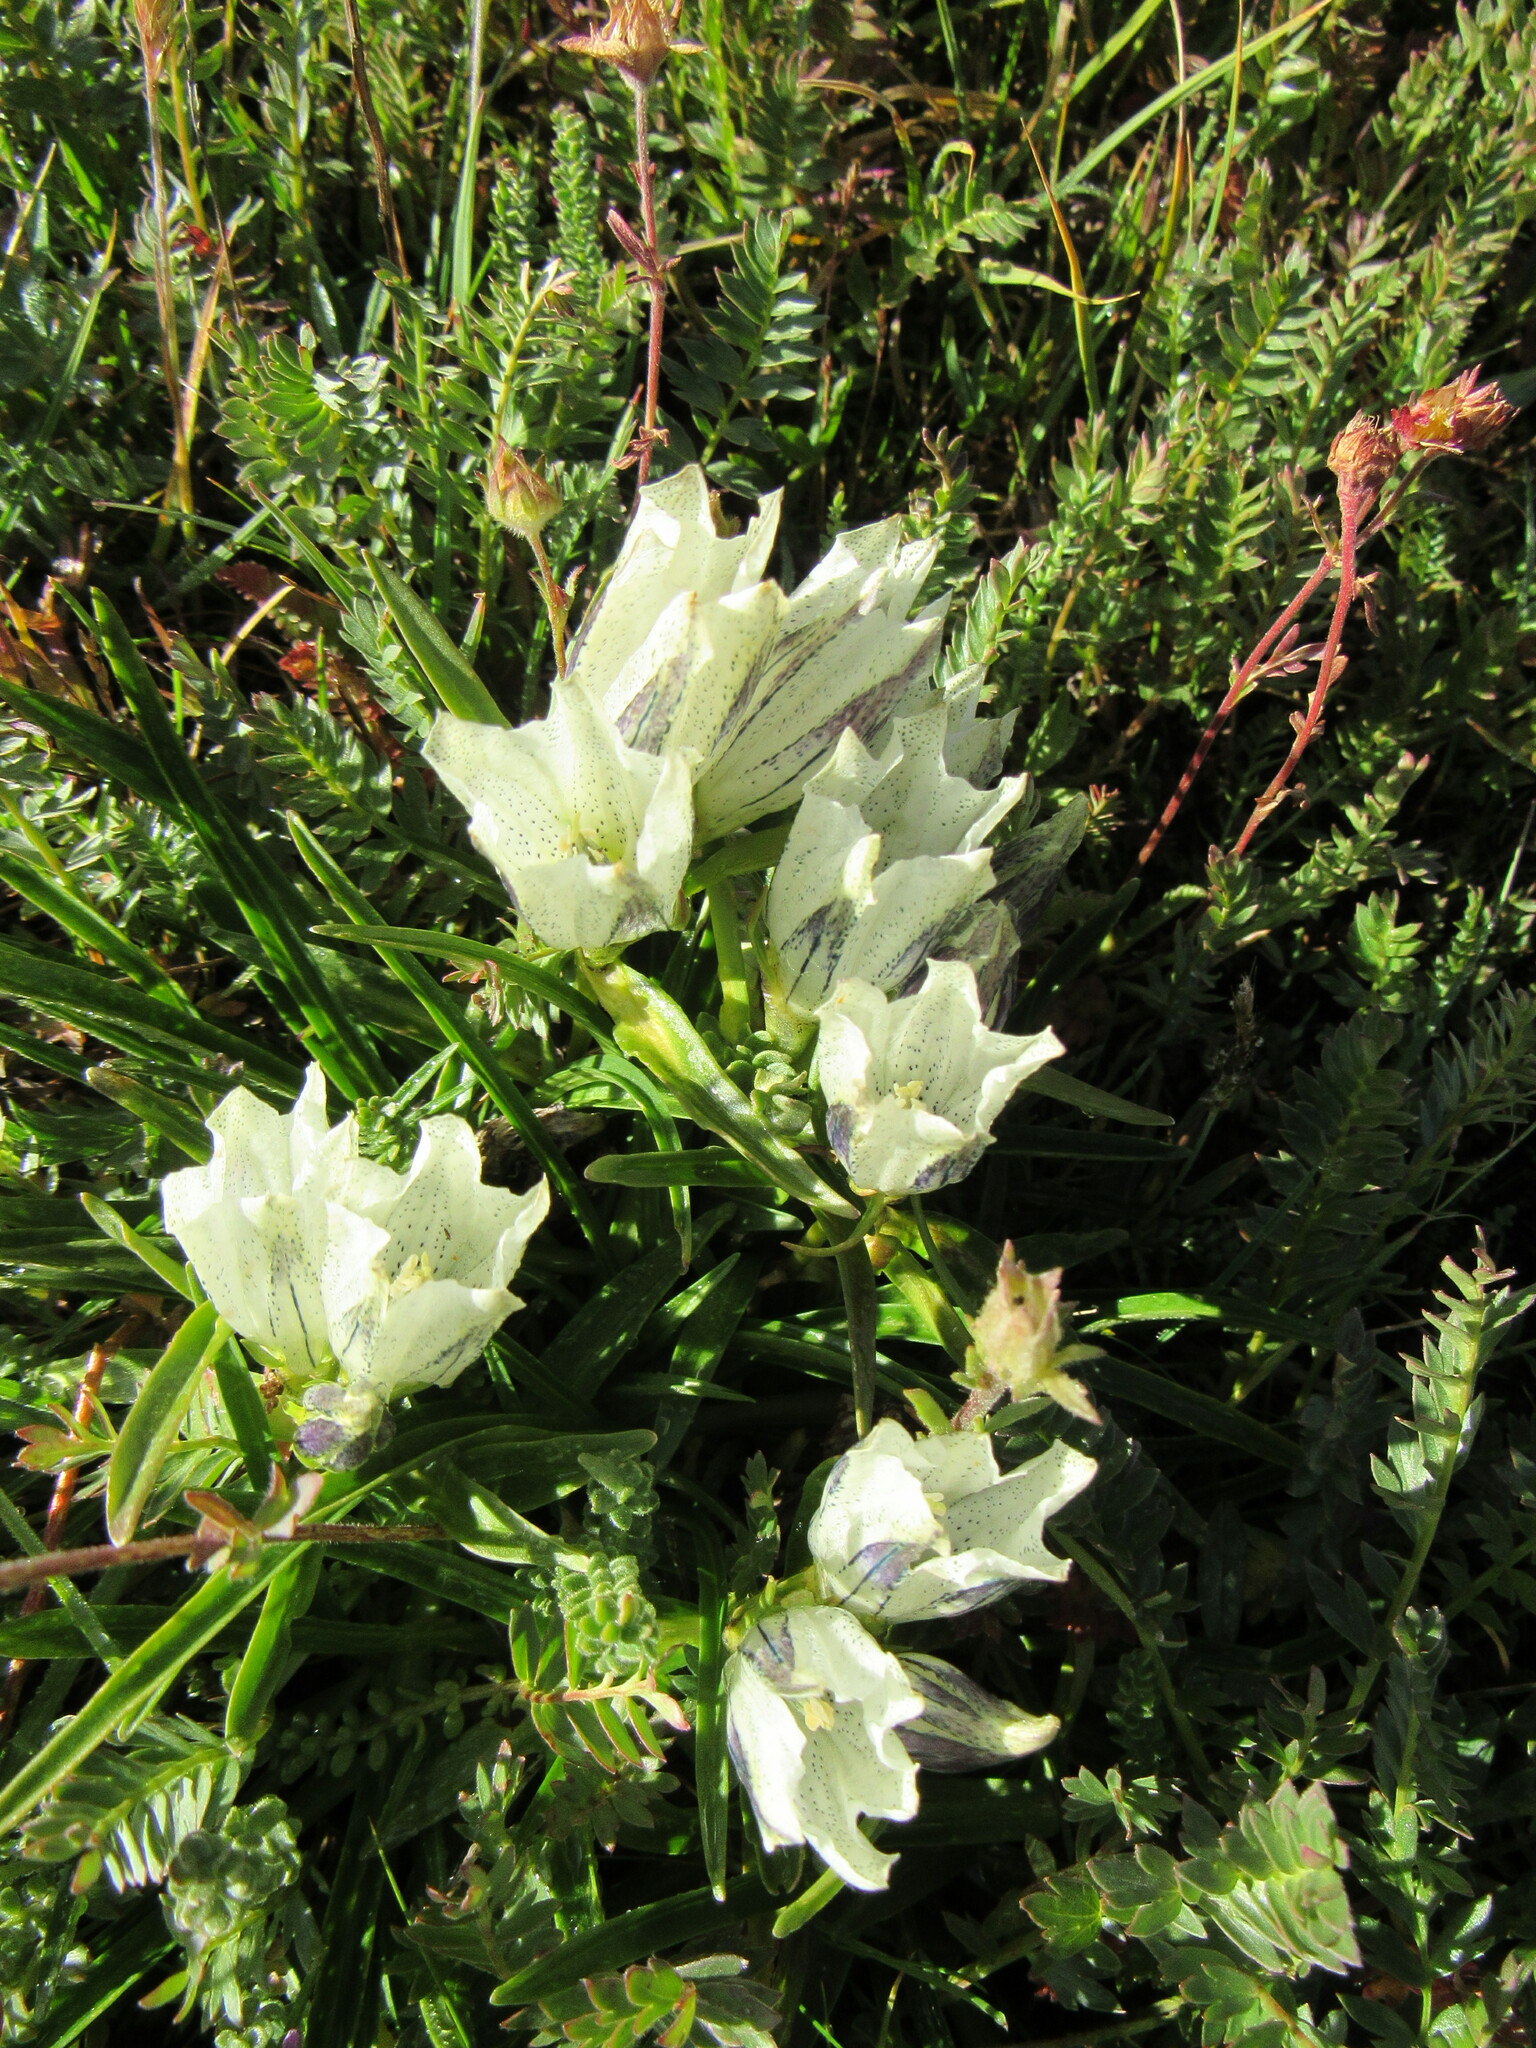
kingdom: Plantae
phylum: Tracheophyta
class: Magnoliopsida
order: Gentianales
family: Gentianaceae
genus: Gentiana
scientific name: Gentiana algida
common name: Arctic gentian
